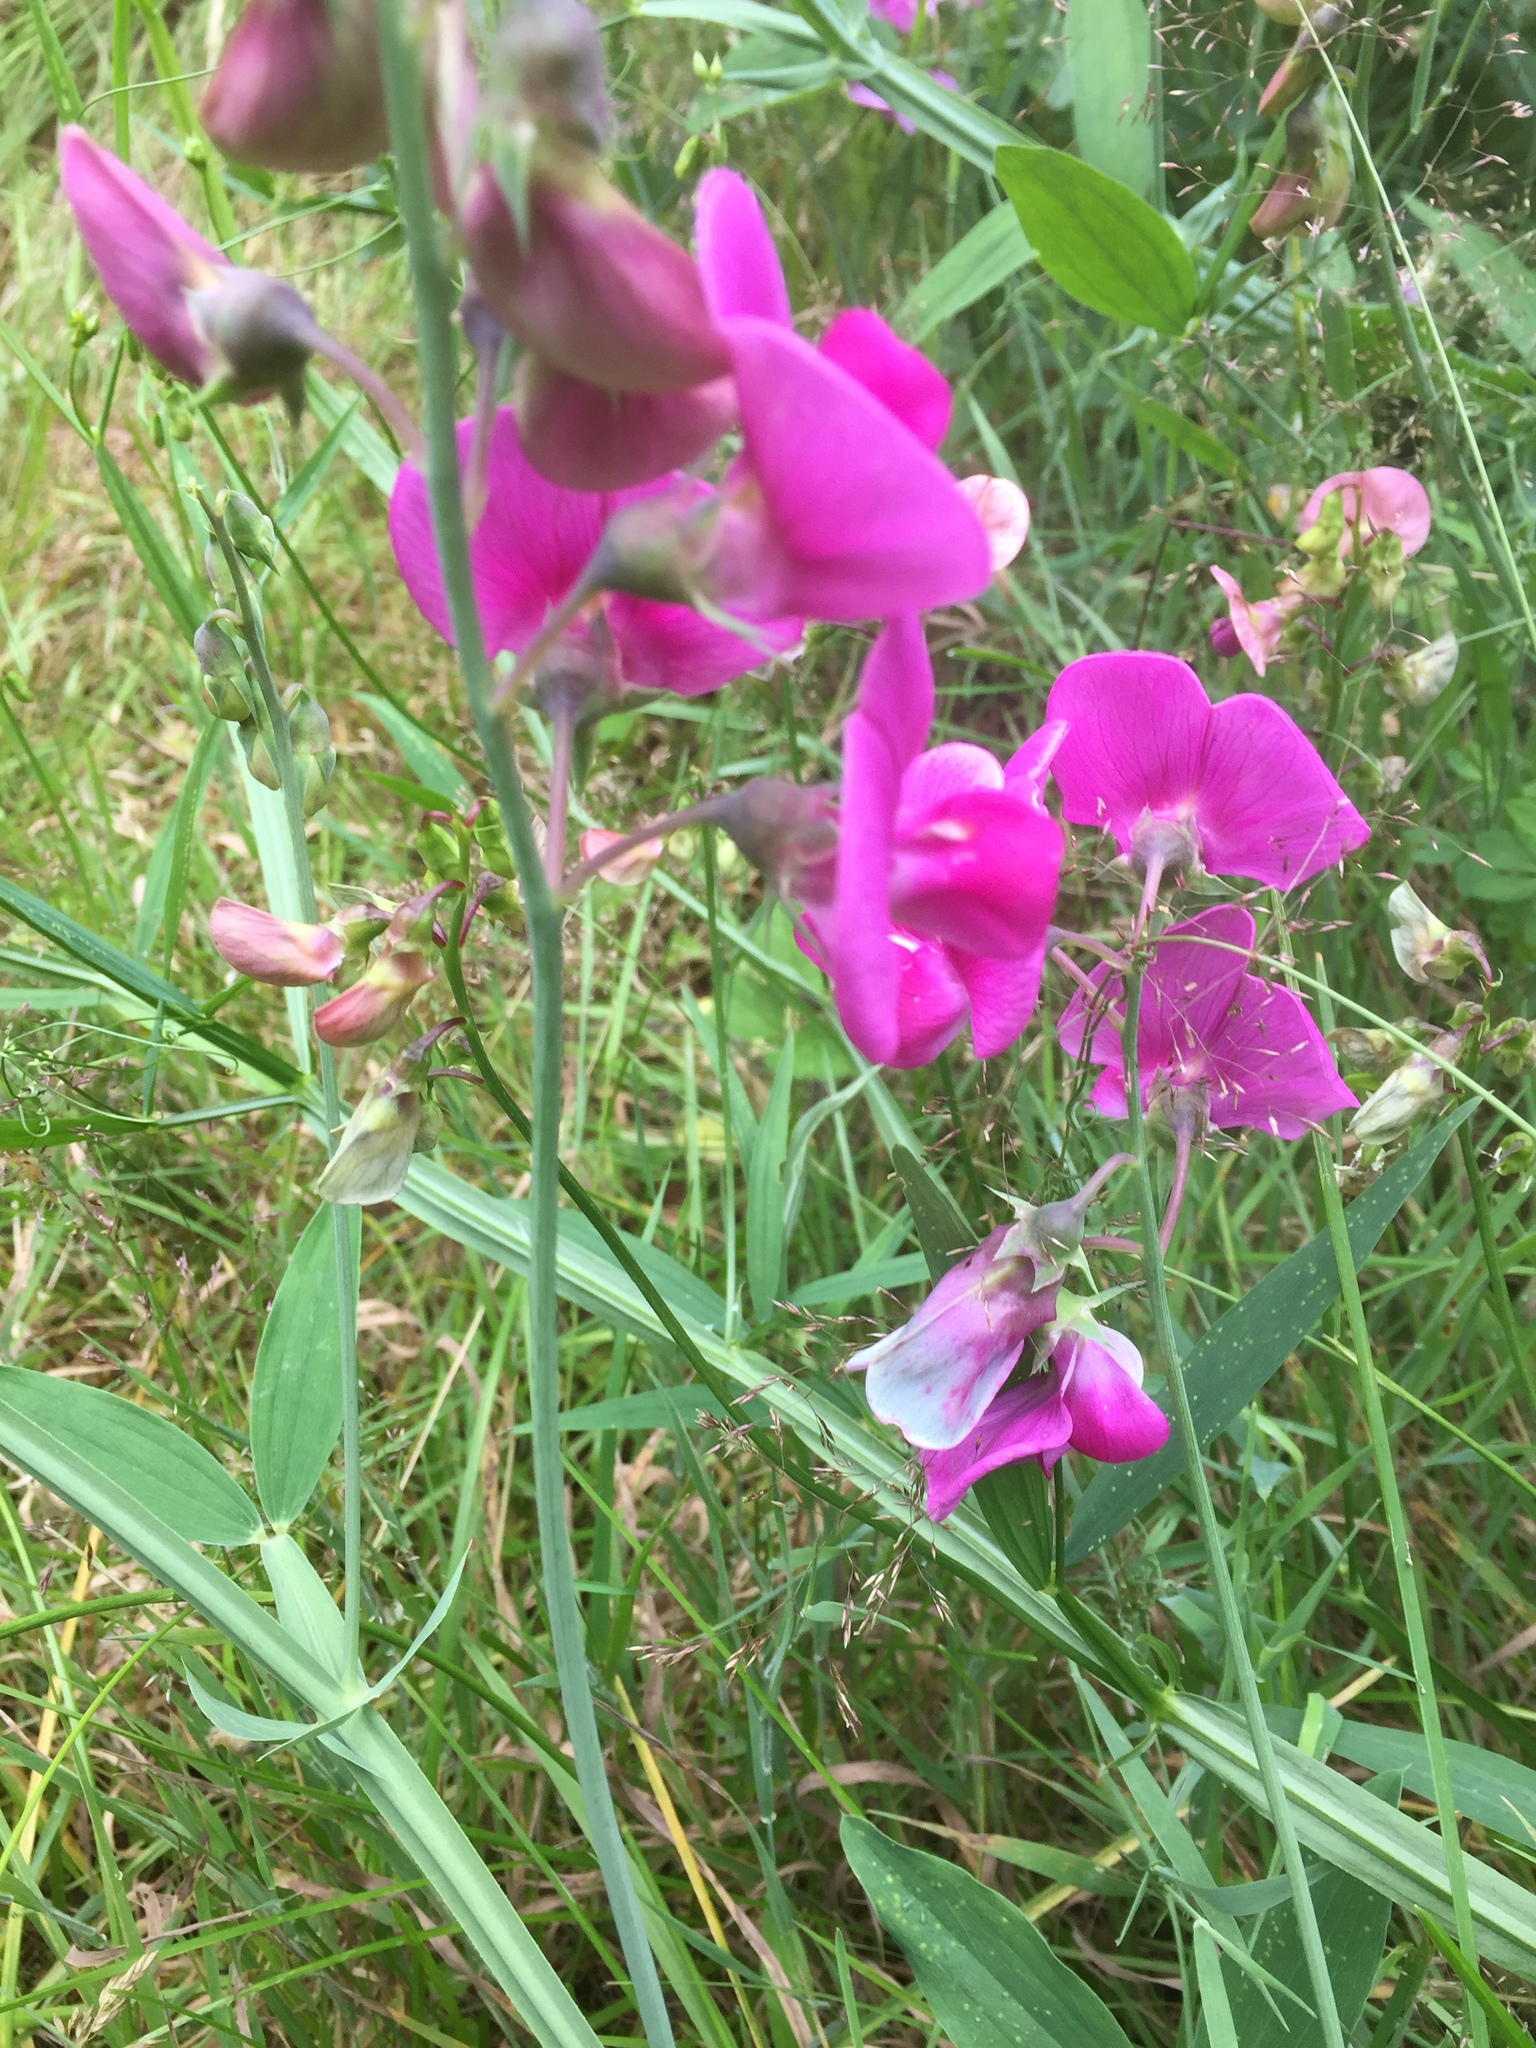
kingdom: Plantae
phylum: Tracheophyta
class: Magnoliopsida
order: Fabales
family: Fabaceae
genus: Lathyrus
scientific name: Lathyrus latifolius
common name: Perennial pea
